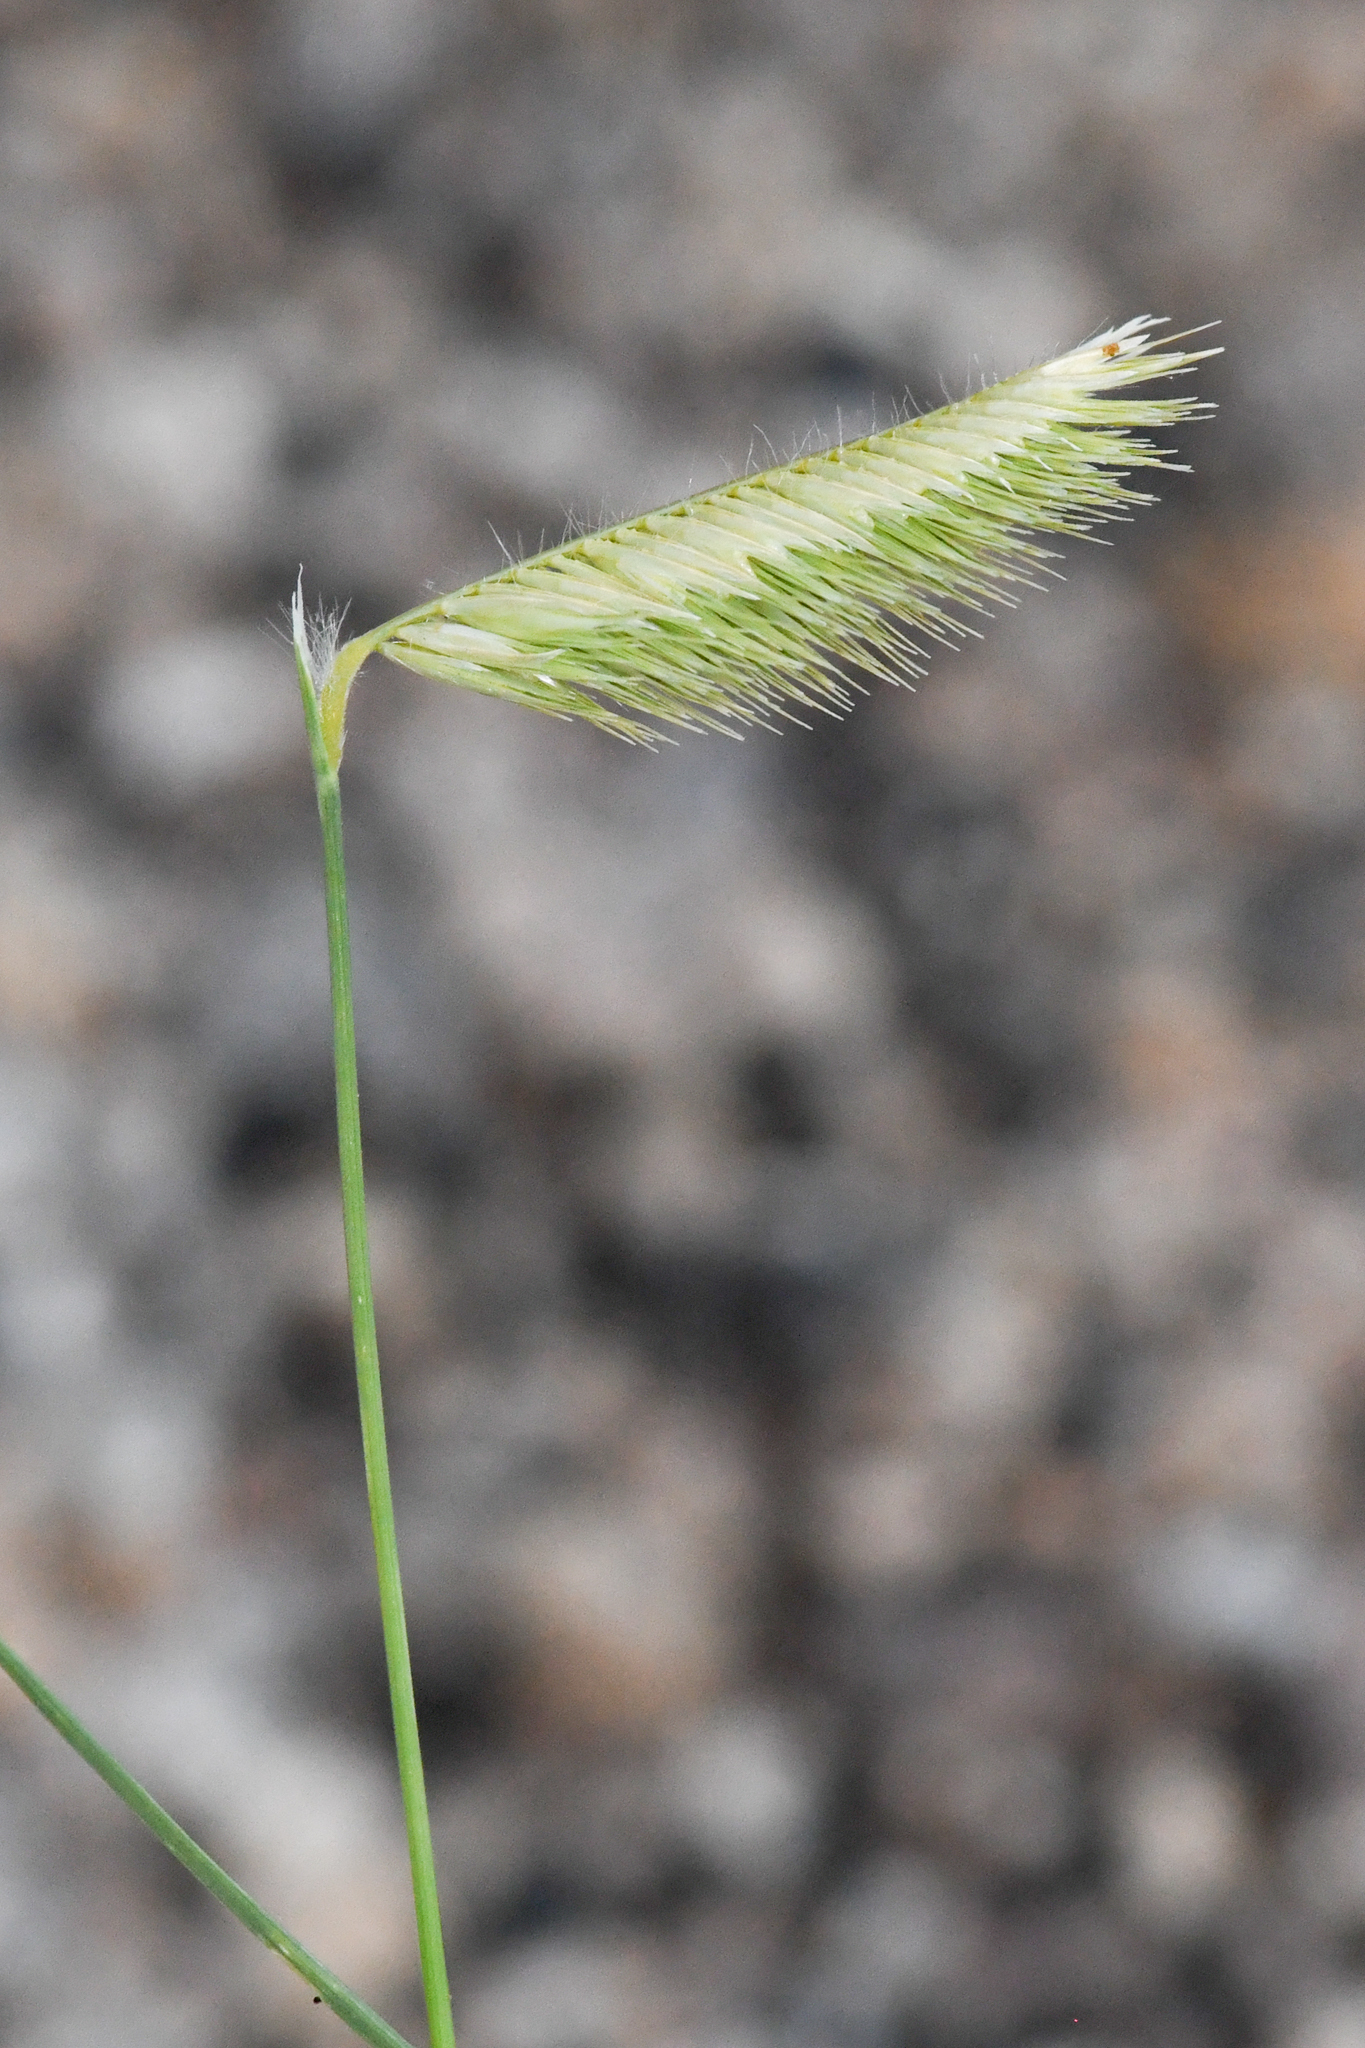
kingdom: Plantae
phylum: Tracheophyta
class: Liliopsida
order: Poales
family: Poaceae
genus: Bouteloua
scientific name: Bouteloua gracilis
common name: Blue grama
